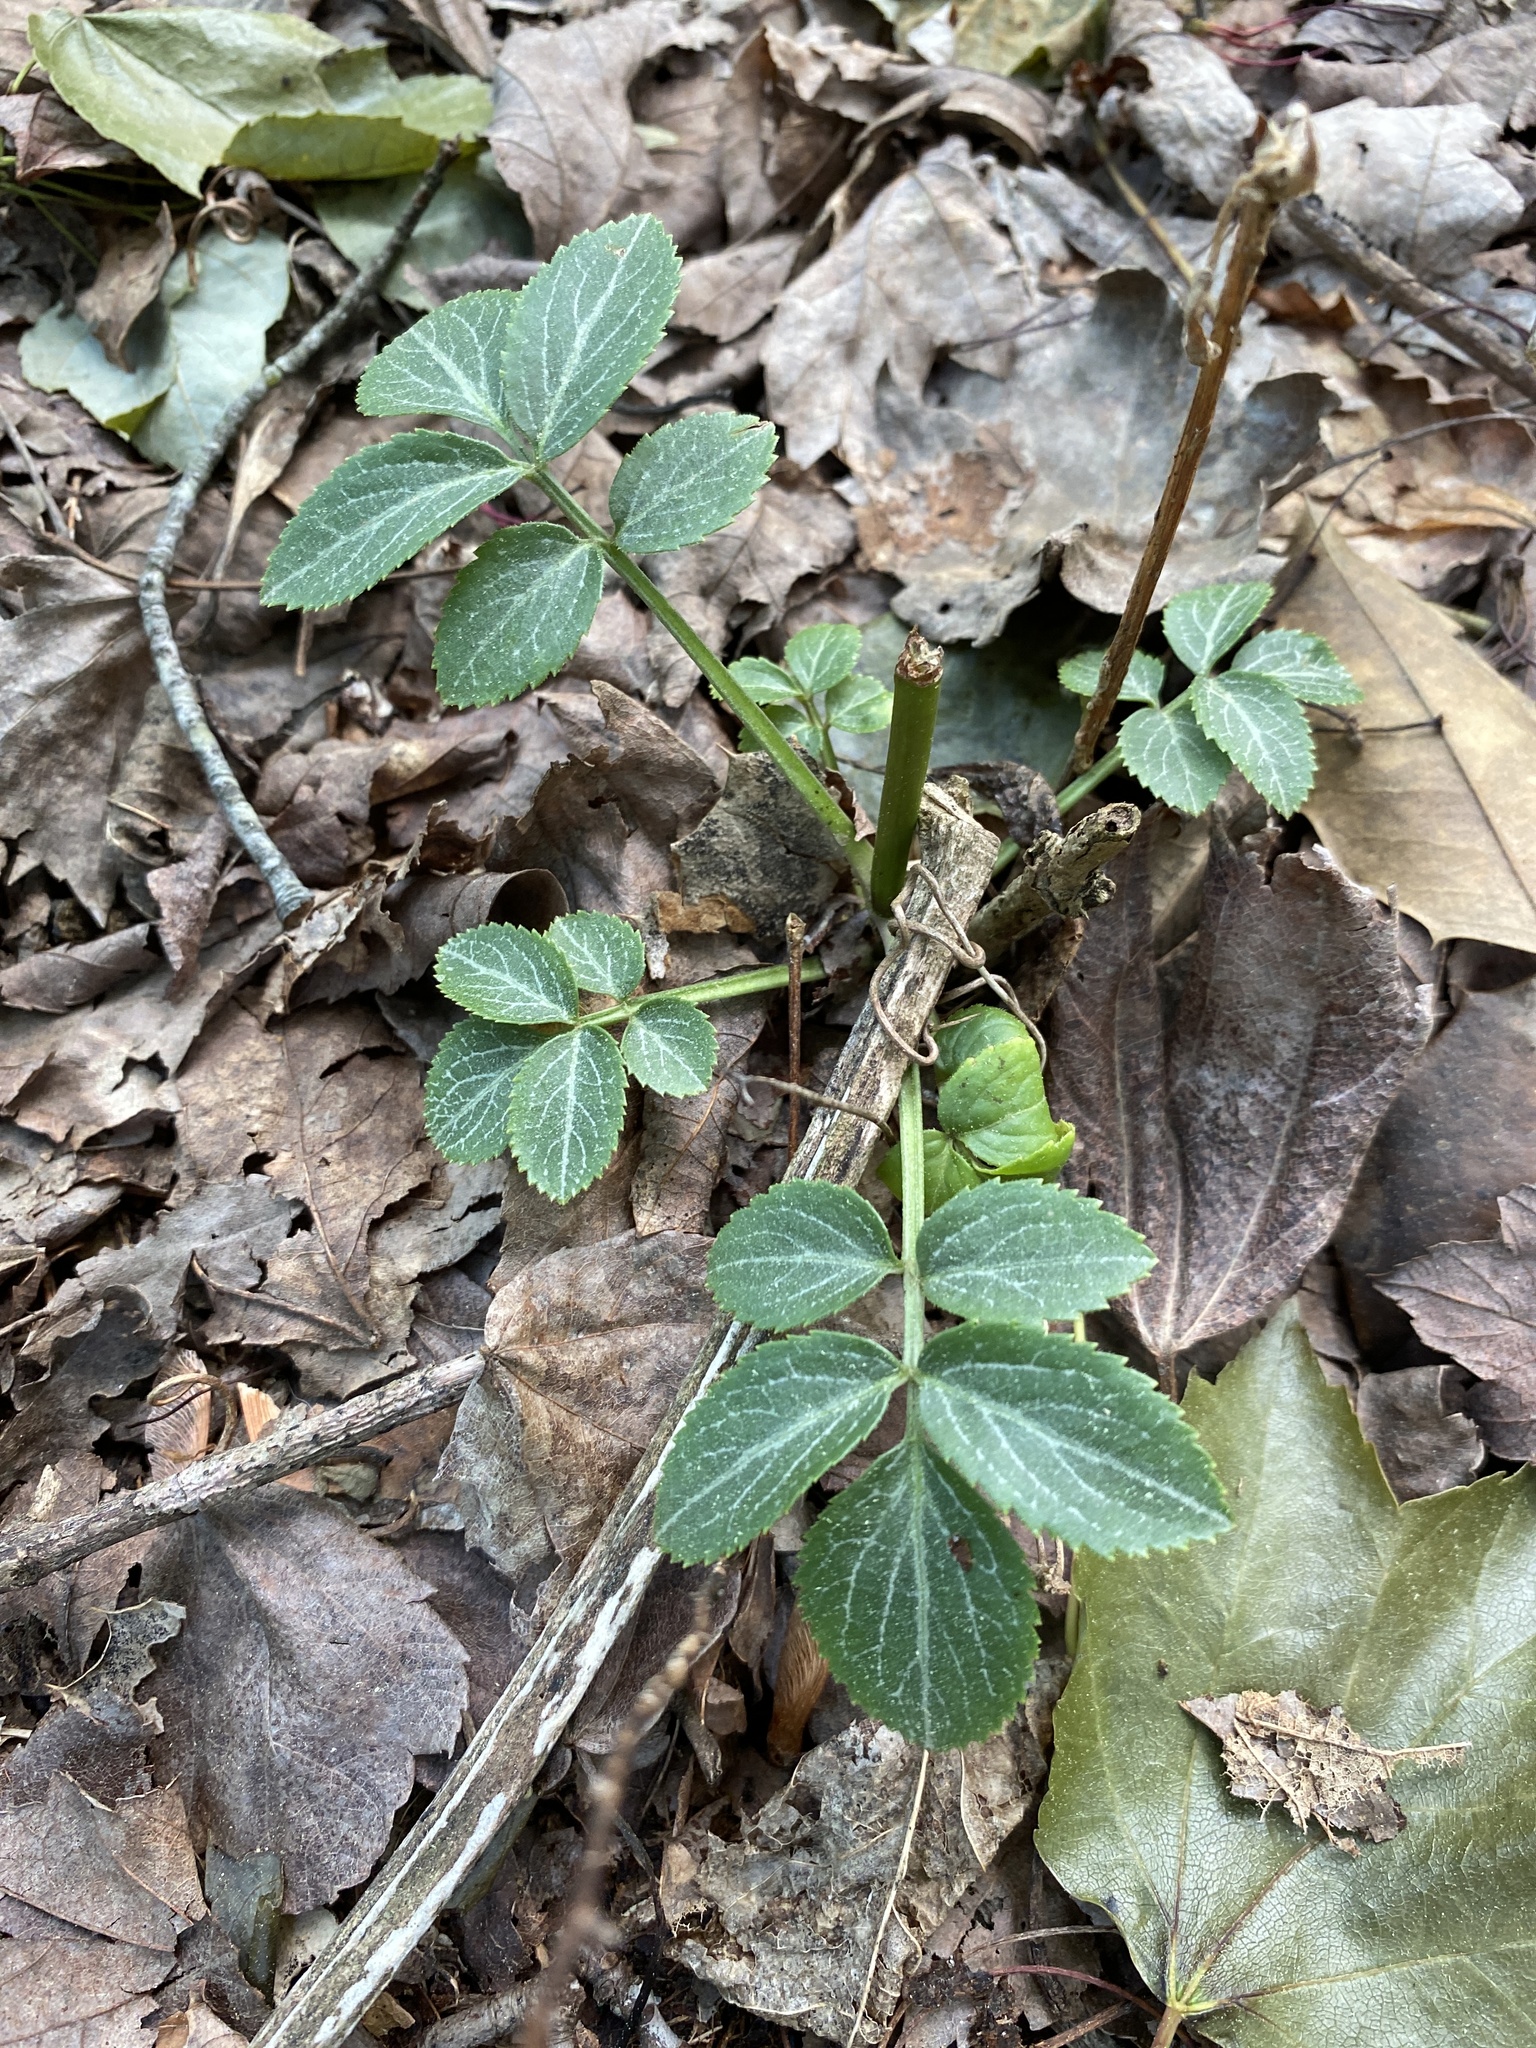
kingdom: Plantae
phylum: Tracheophyta
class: Magnoliopsida
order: Dipsacales
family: Viburnaceae
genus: Sambucus
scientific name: Sambucus canadensis
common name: American elder
